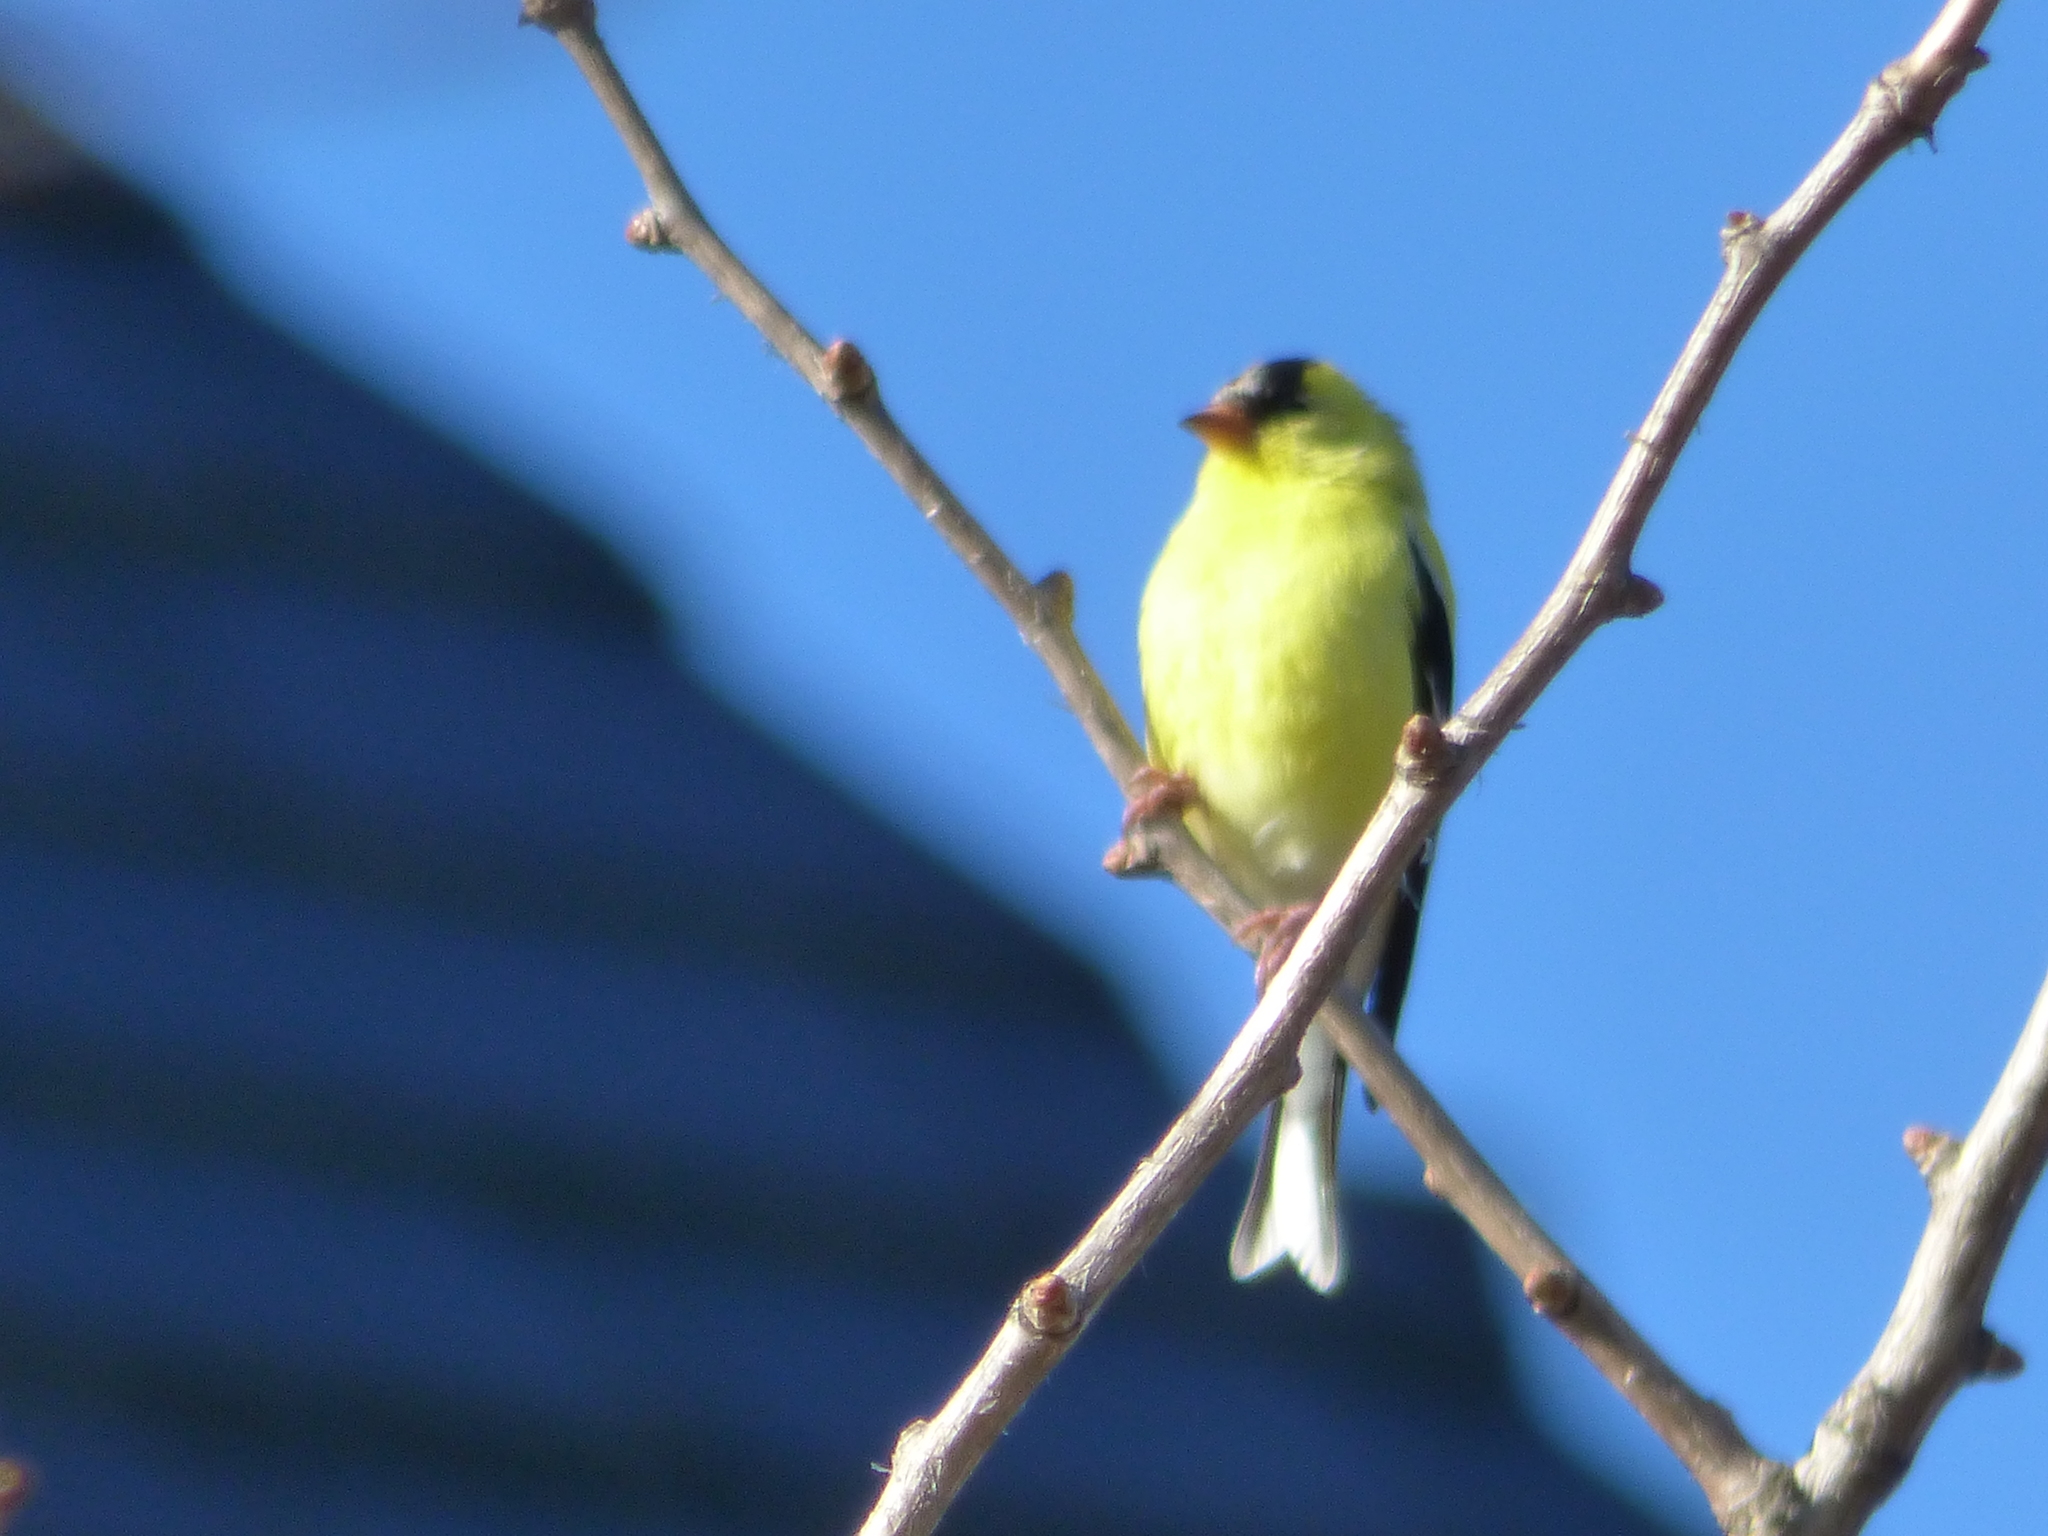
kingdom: Animalia
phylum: Chordata
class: Aves
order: Passeriformes
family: Fringillidae
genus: Spinus
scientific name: Spinus tristis
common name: American goldfinch
